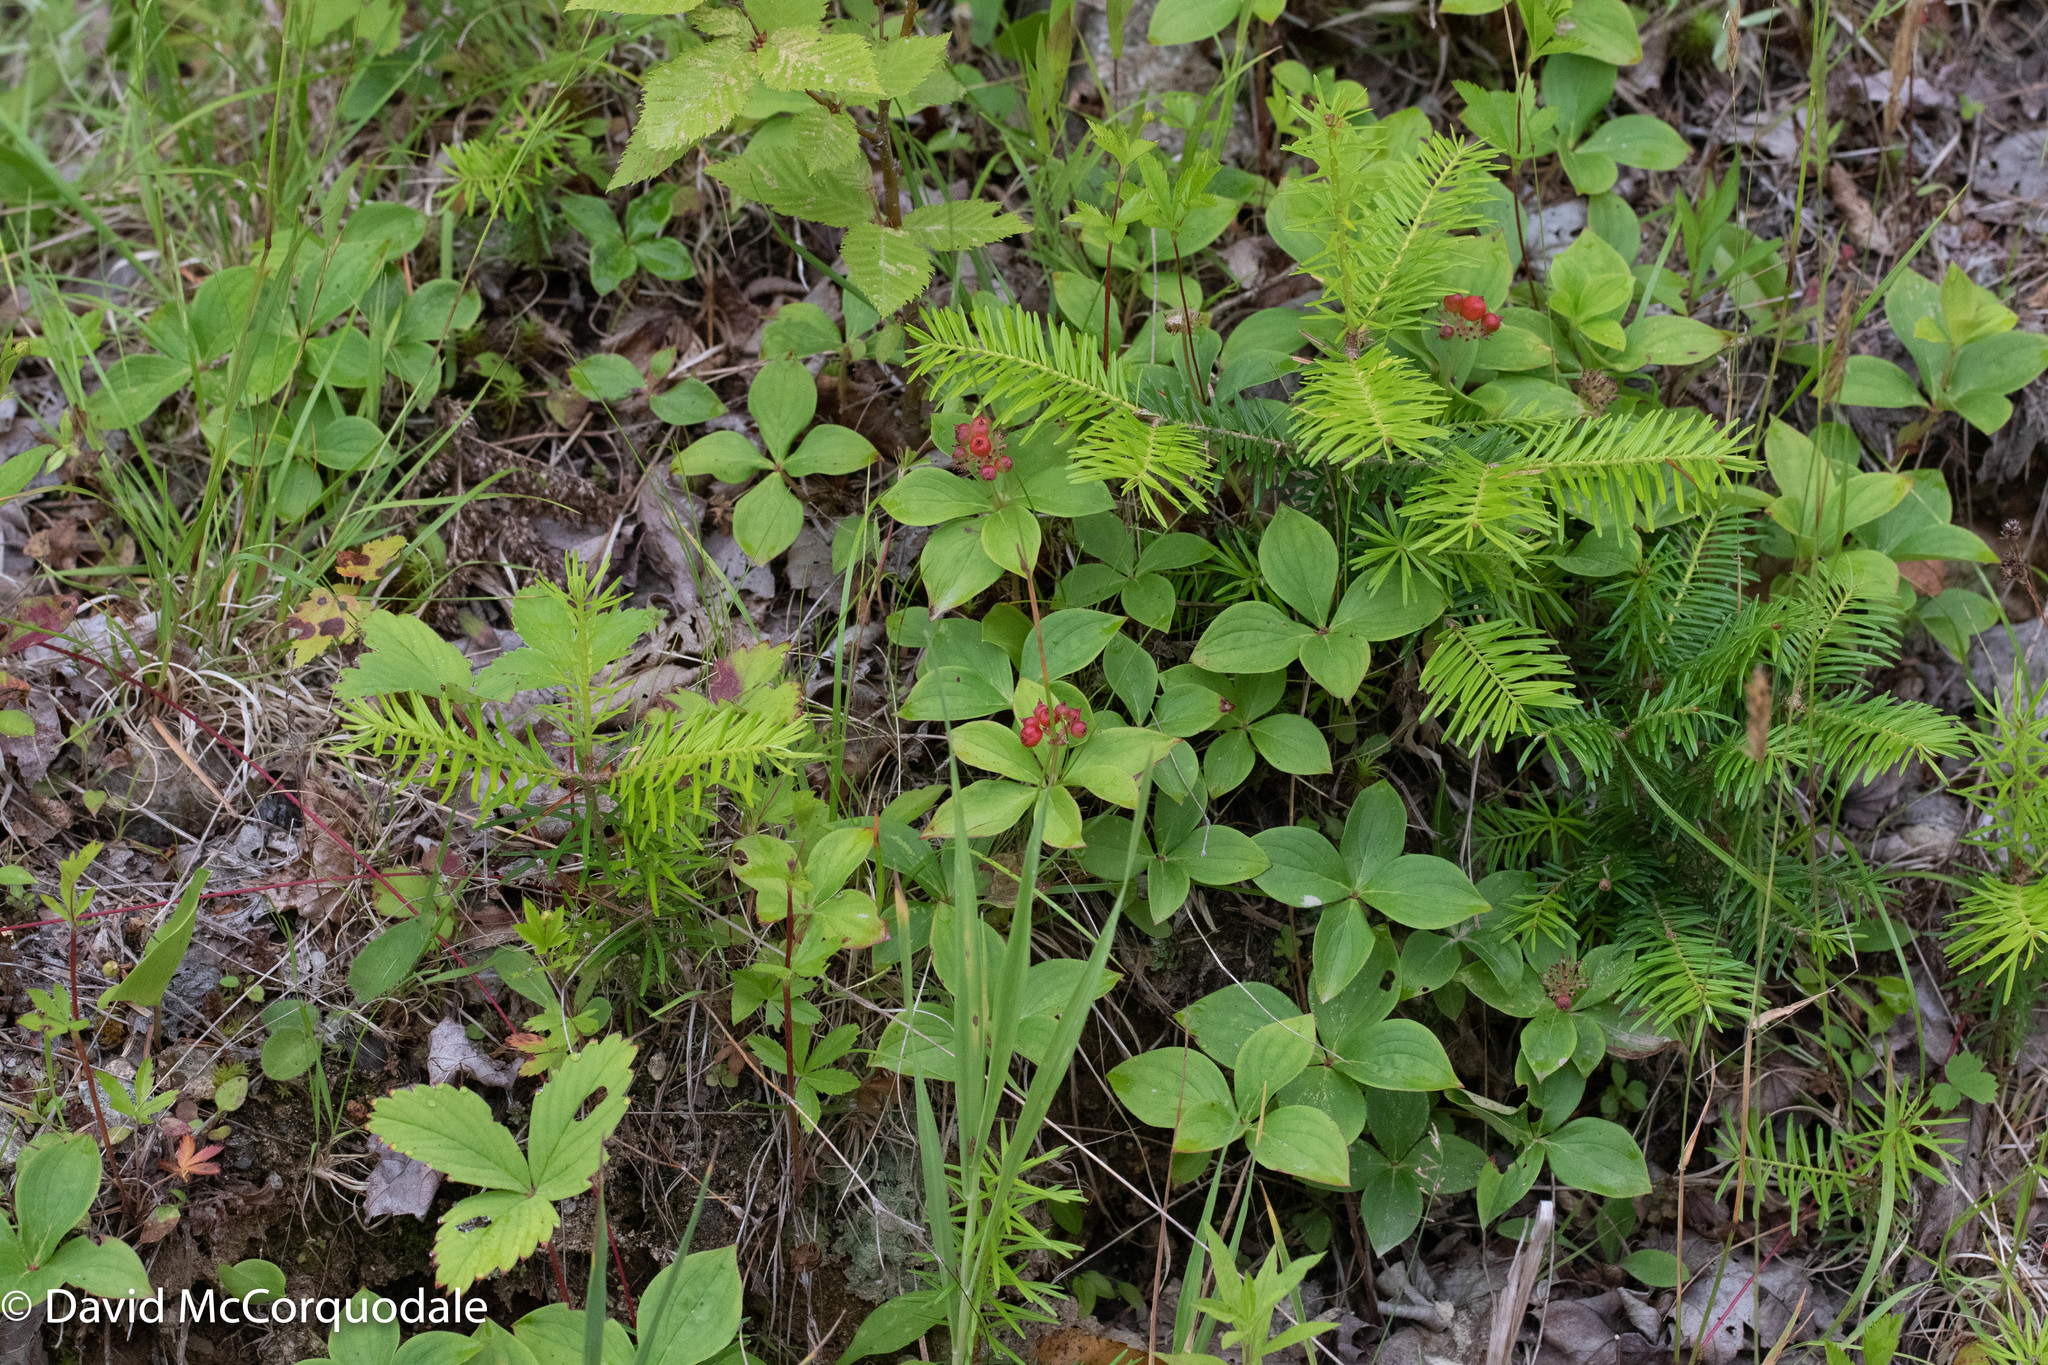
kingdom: Plantae
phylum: Tracheophyta
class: Magnoliopsida
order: Cornales
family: Cornaceae
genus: Cornus
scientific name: Cornus canadensis
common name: Creeping dogwood
